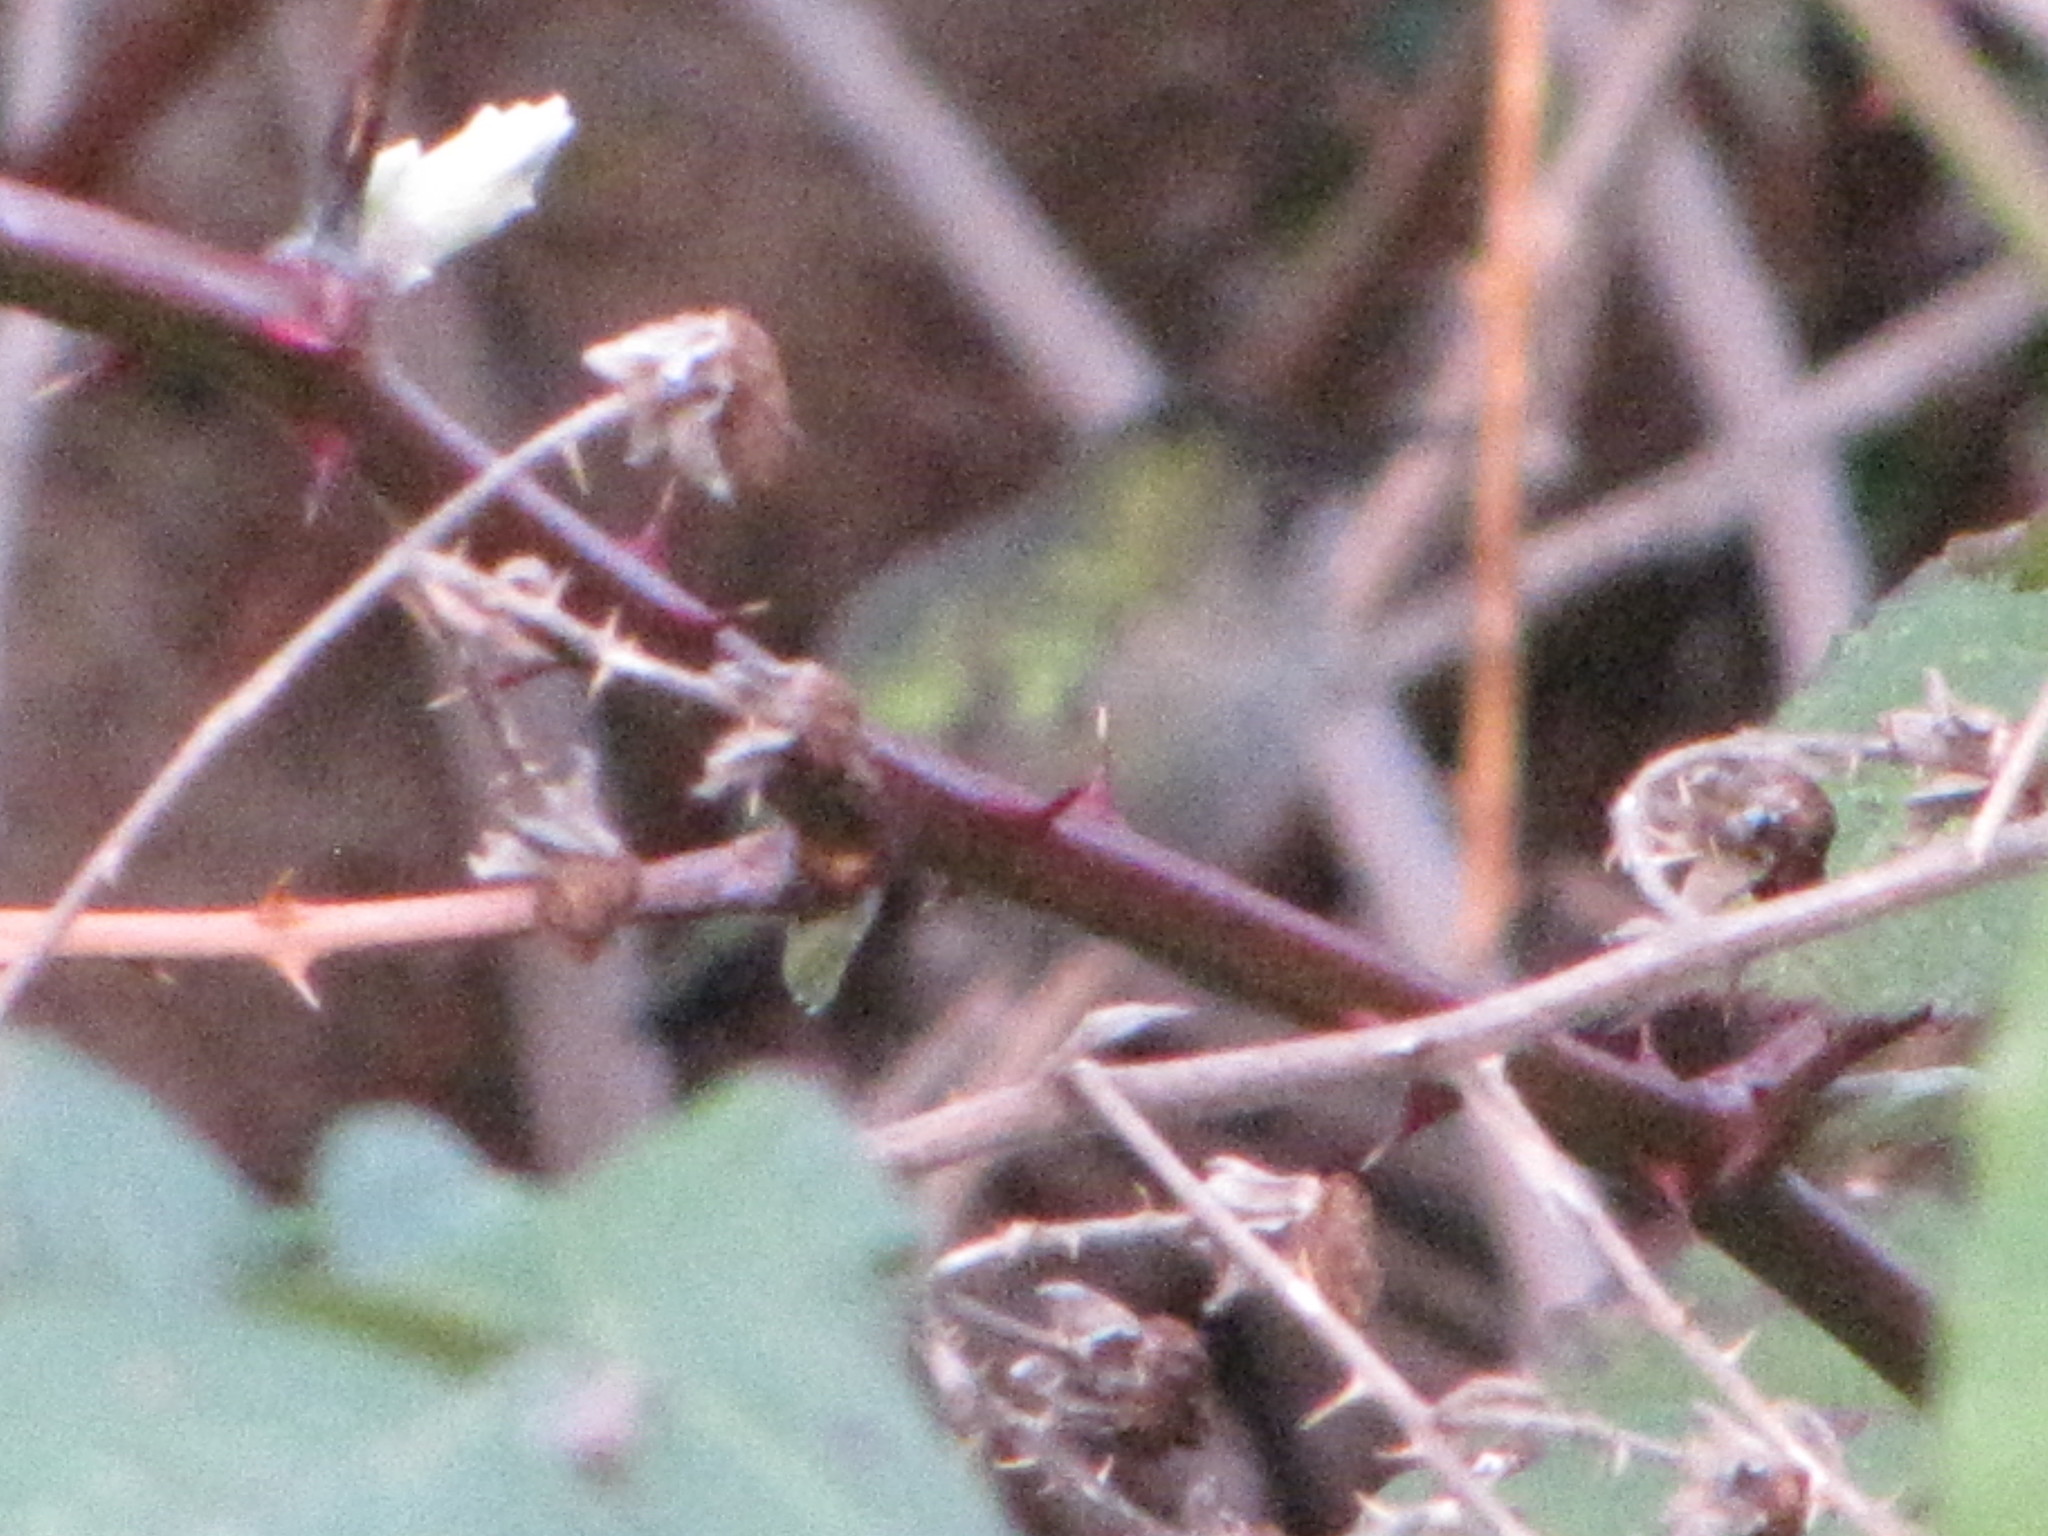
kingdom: Animalia
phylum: Chordata
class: Aves
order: Apodiformes
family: Trochilidae
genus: Calypte
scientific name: Calypte anna
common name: Anna's hummingbird
